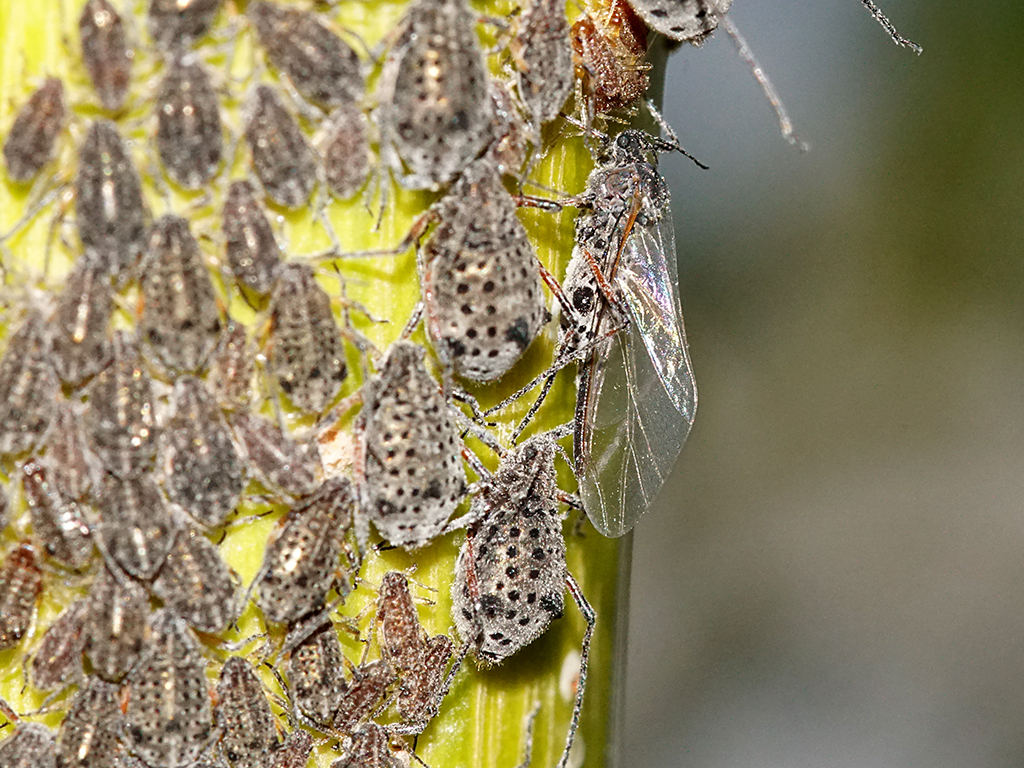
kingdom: Animalia
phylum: Arthropoda
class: Insecta
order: Hemiptera
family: Aphididae
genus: Tuberolachnus
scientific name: Tuberolachnus salignus
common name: Giant willow aphid
